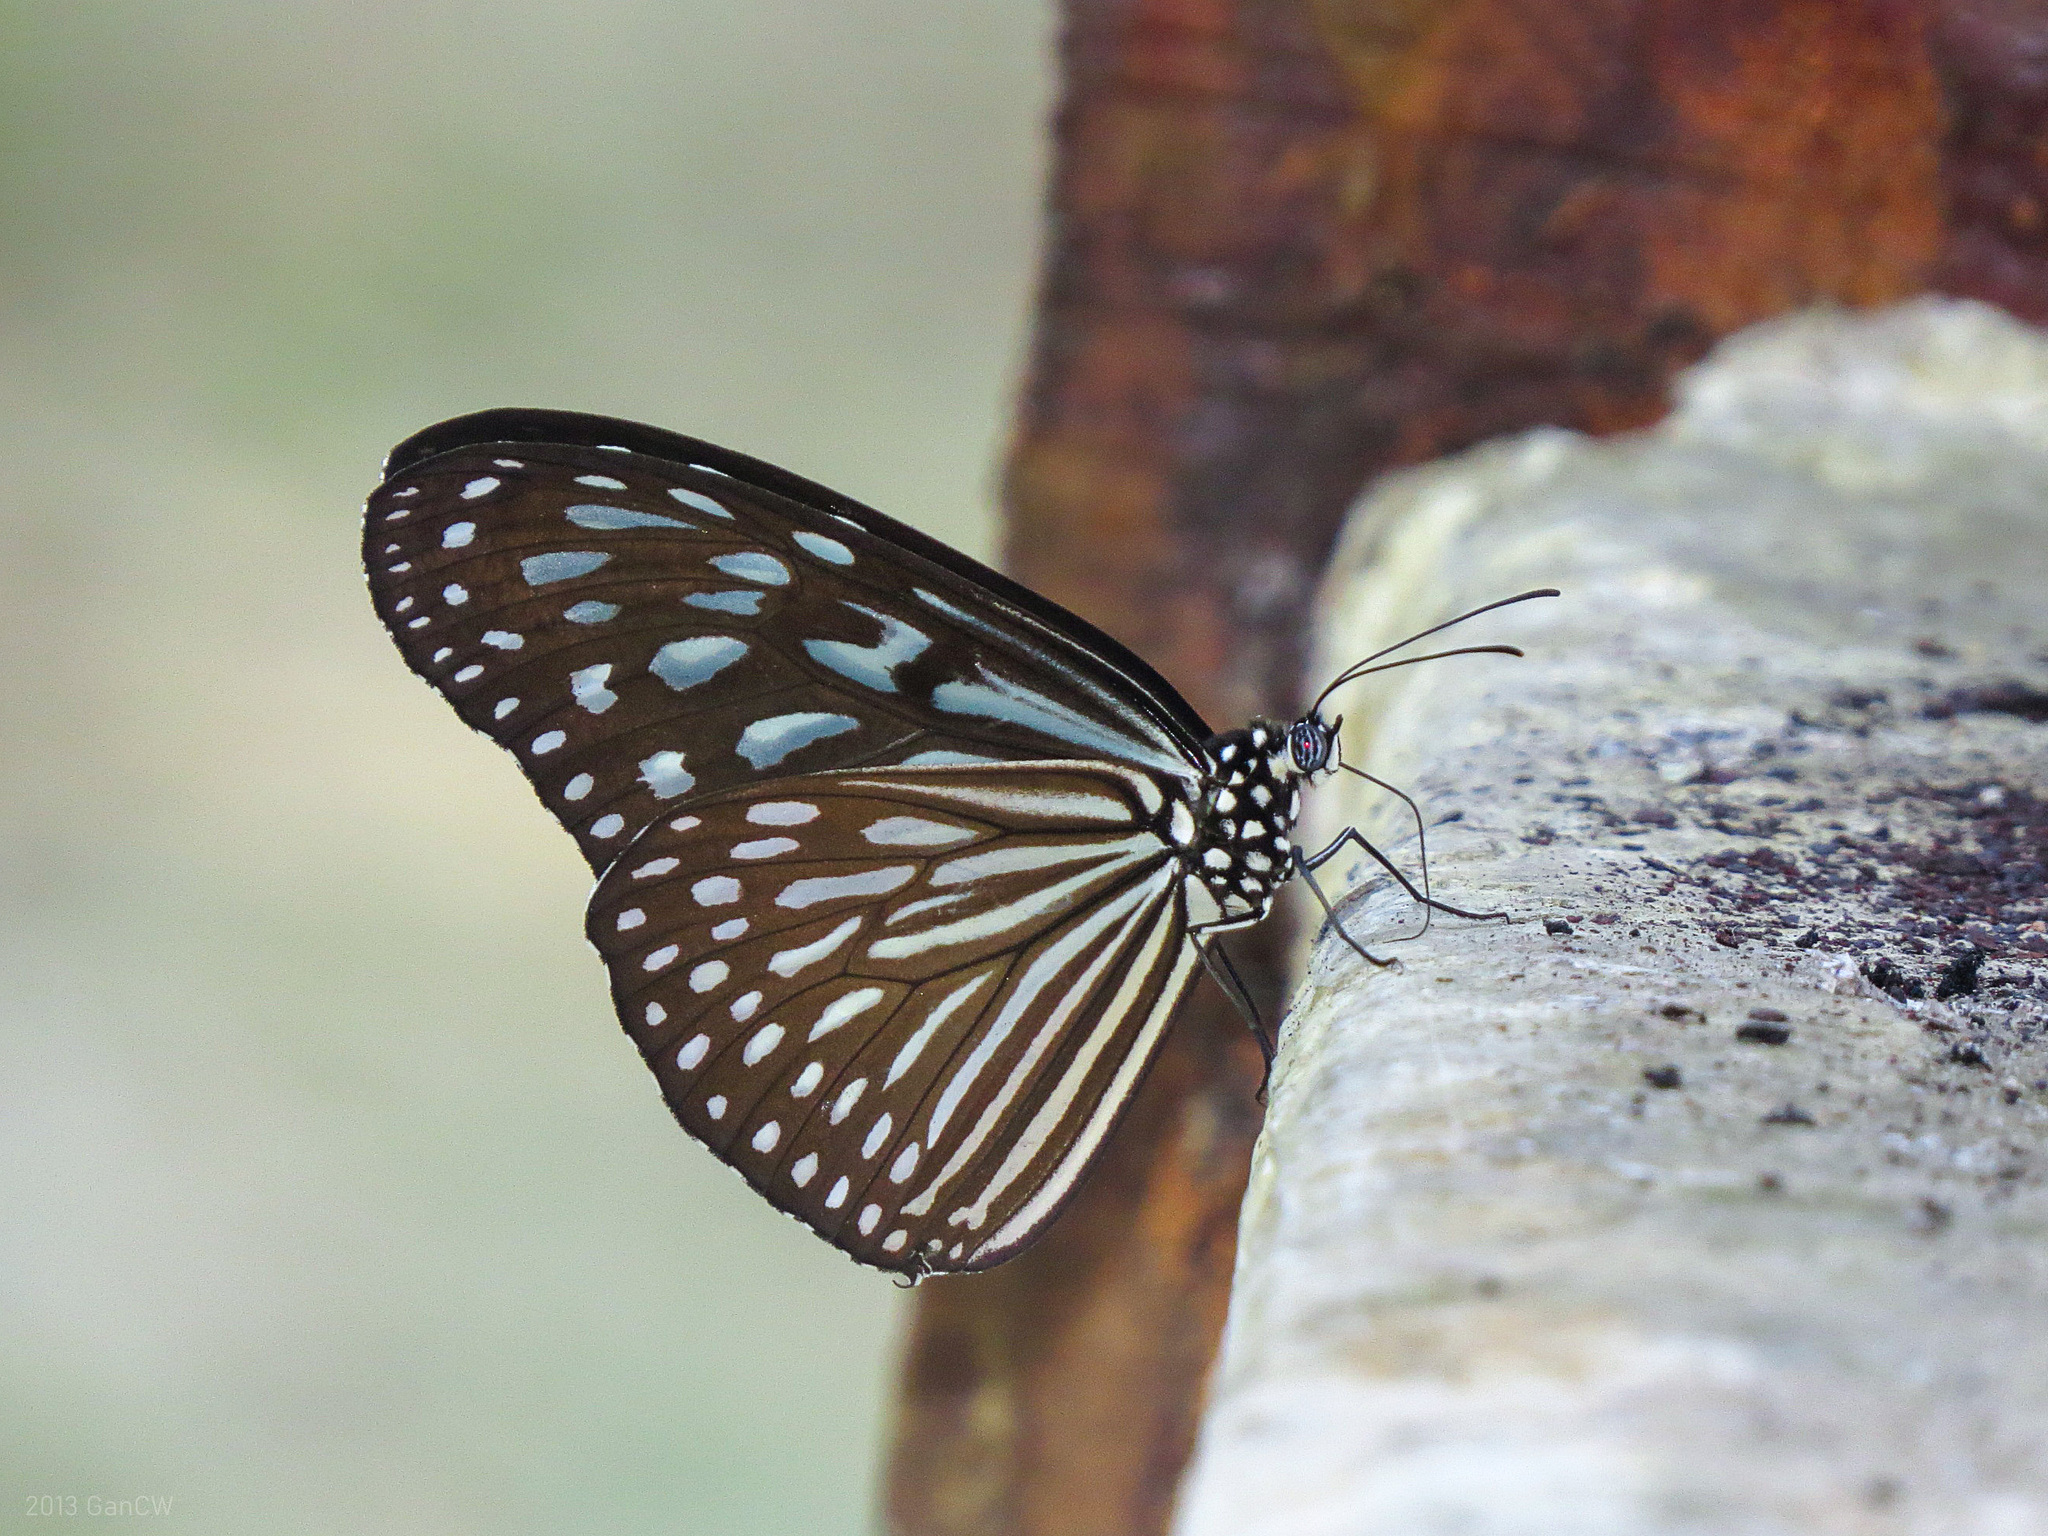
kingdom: Animalia
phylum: Arthropoda
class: Insecta
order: Lepidoptera
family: Nymphalidae
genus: Ideopsis
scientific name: Ideopsis vulgaris
